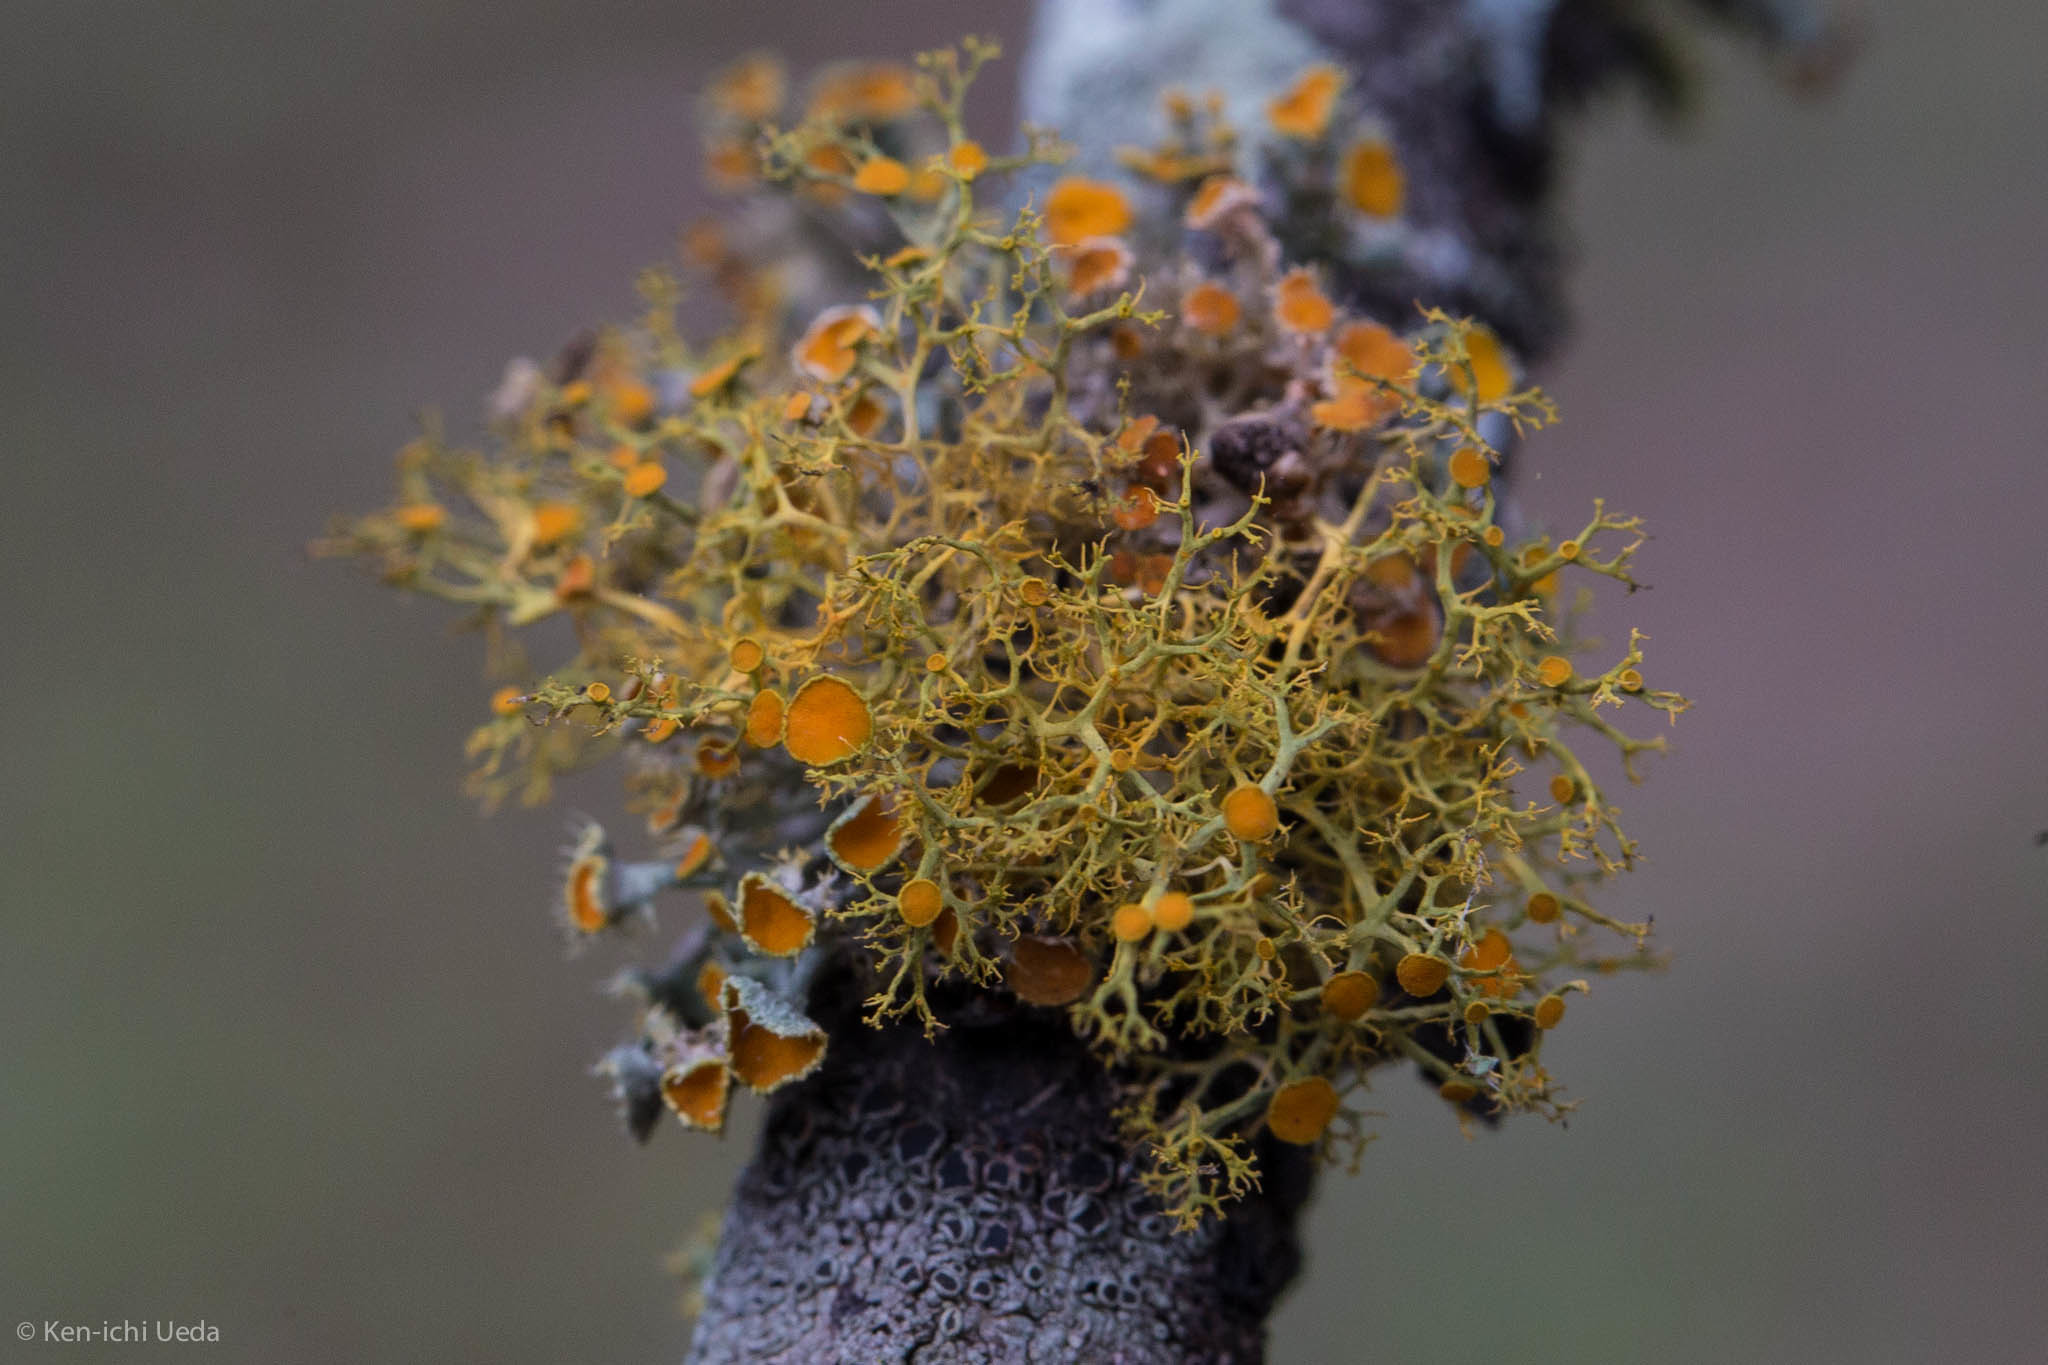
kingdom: Fungi
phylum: Ascomycota
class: Lecanoromycetes
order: Teloschistales
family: Teloschistaceae
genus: Niorma
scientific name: Niorma chrysophthalma
